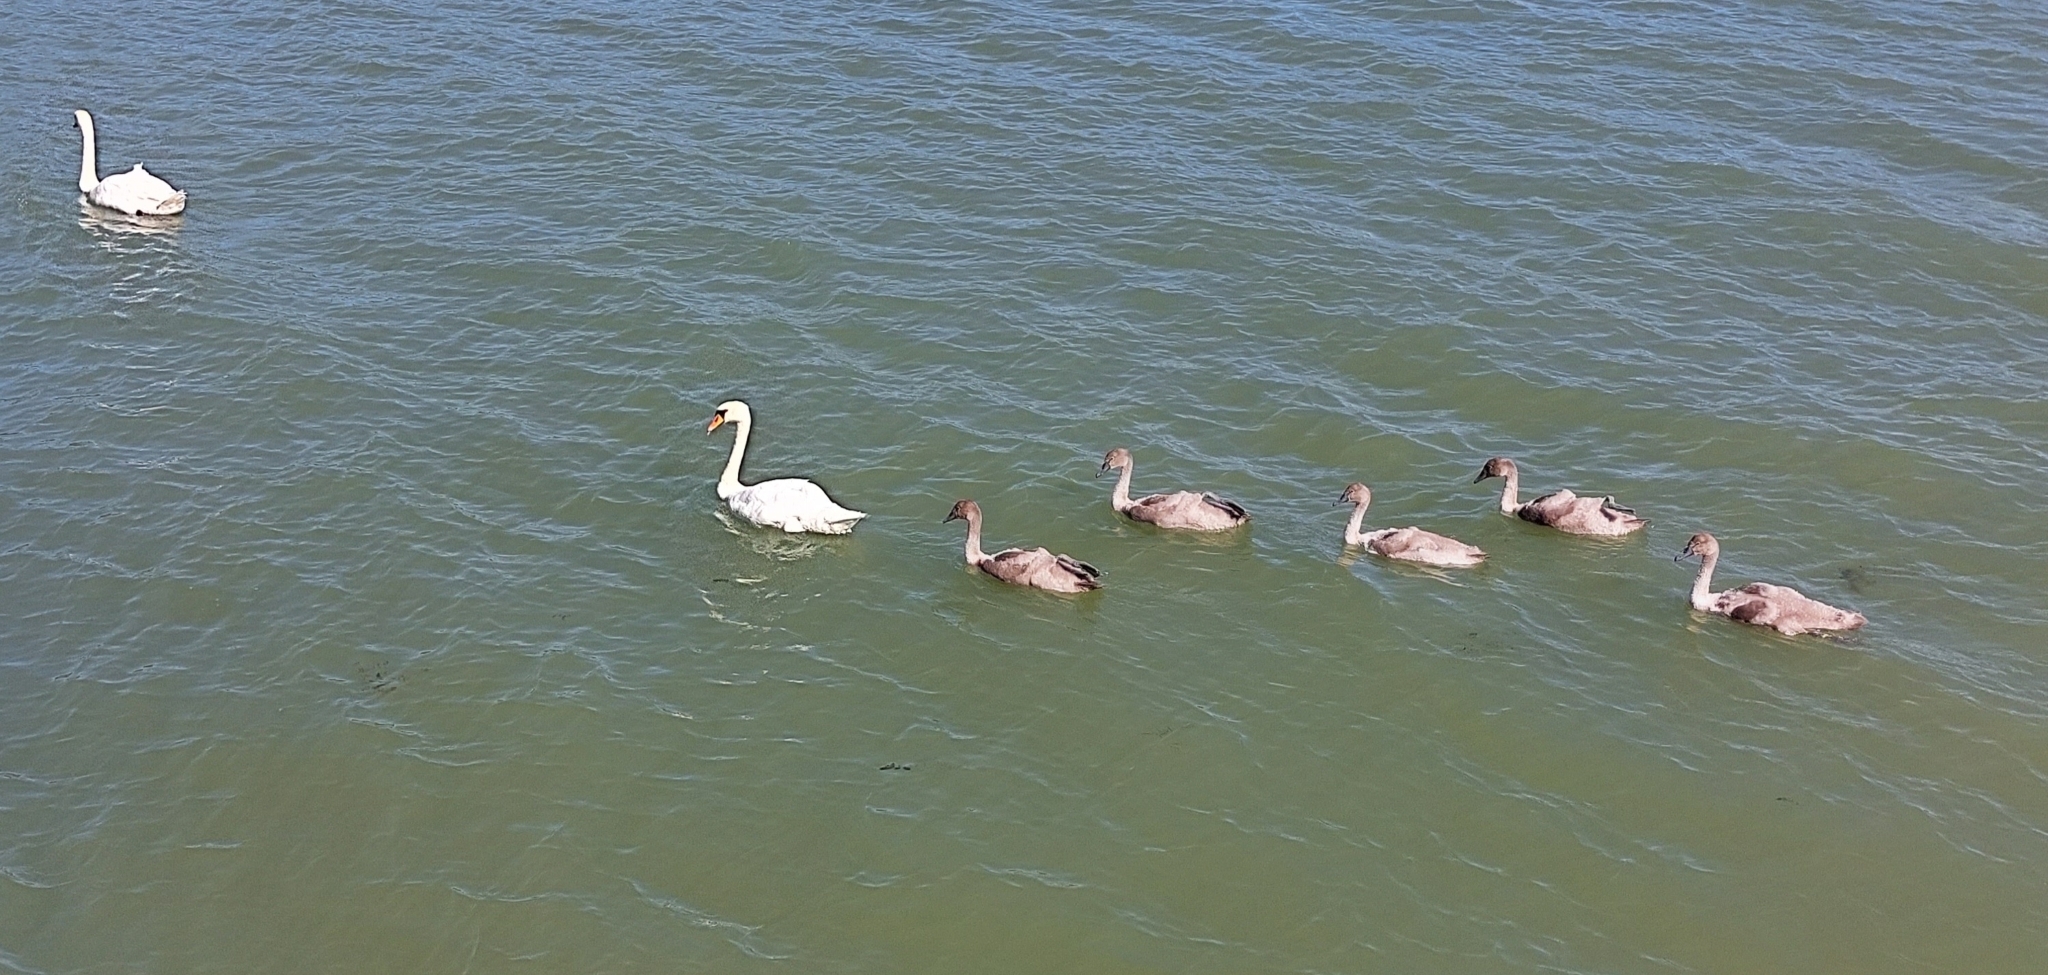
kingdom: Animalia
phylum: Chordata
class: Aves
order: Anseriformes
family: Anatidae
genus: Cygnus
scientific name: Cygnus olor
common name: Mute swan
